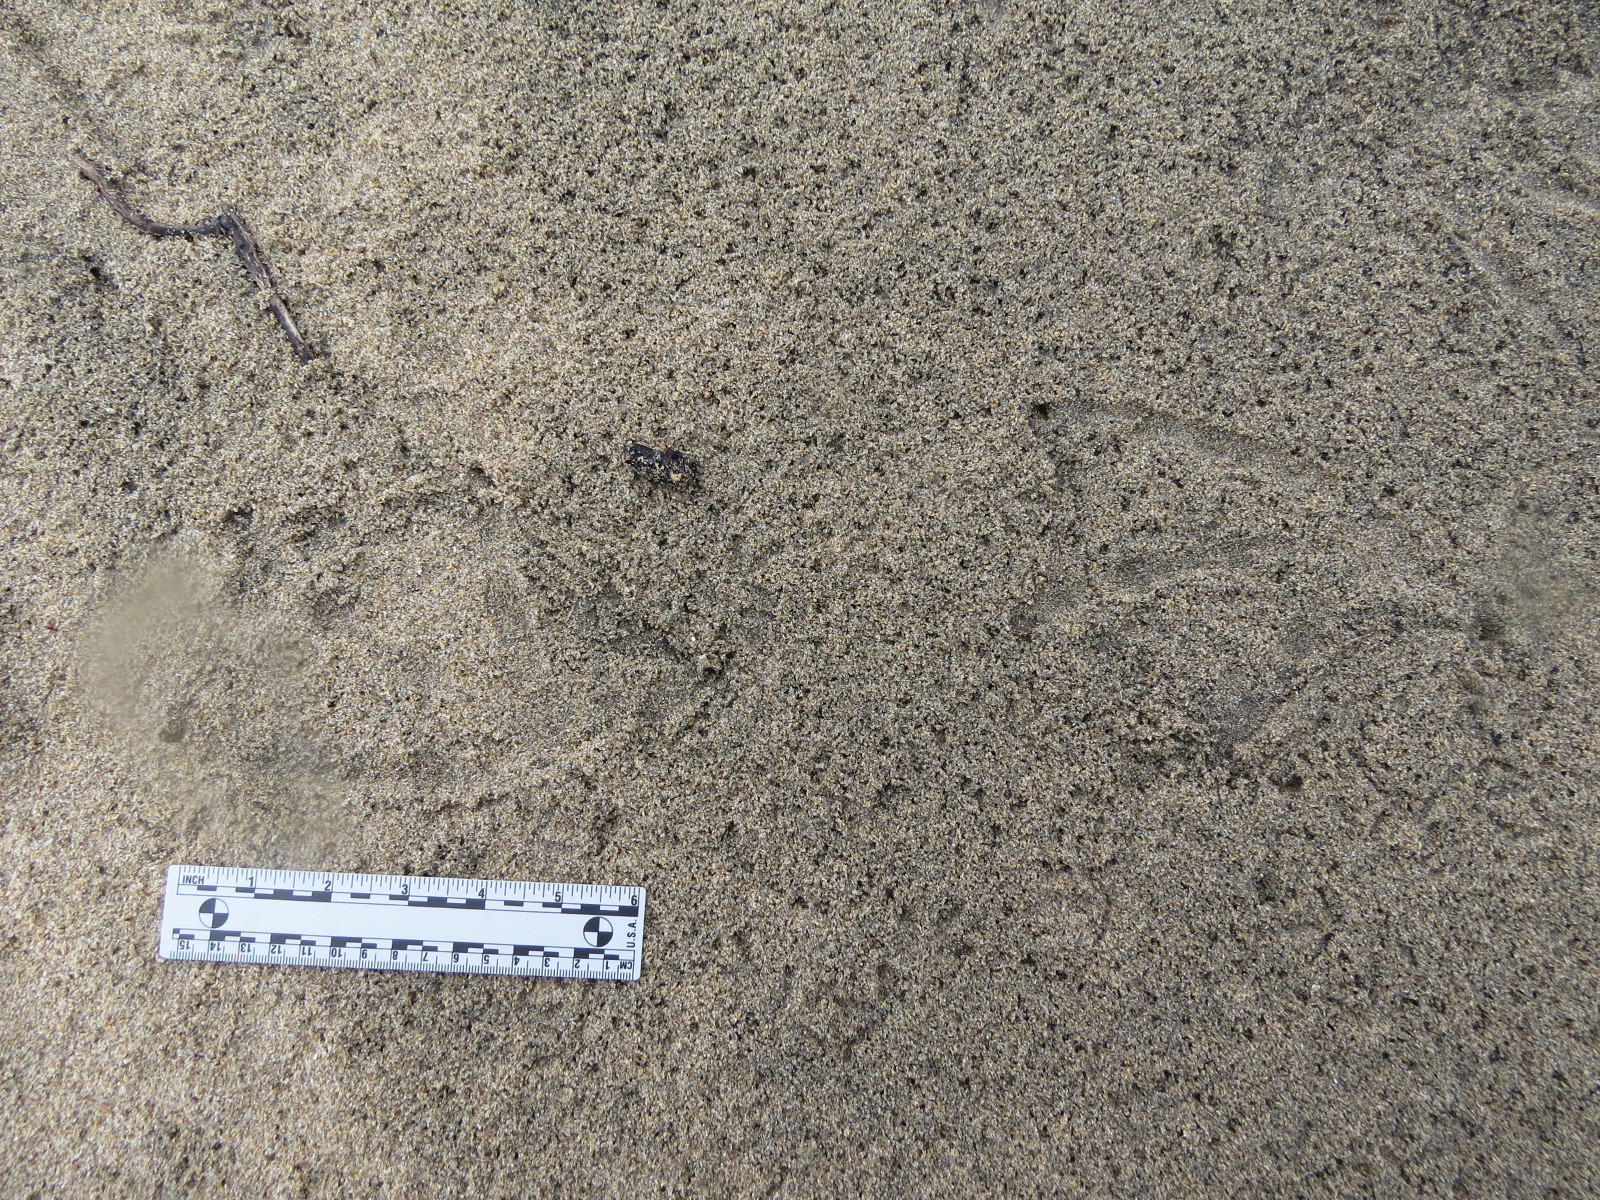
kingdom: Animalia
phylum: Chordata
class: Aves
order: Pelecaniformes
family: Pelecanidae
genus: Pelecanus
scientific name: Pelecanus occidentalis
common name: Brown pelican
